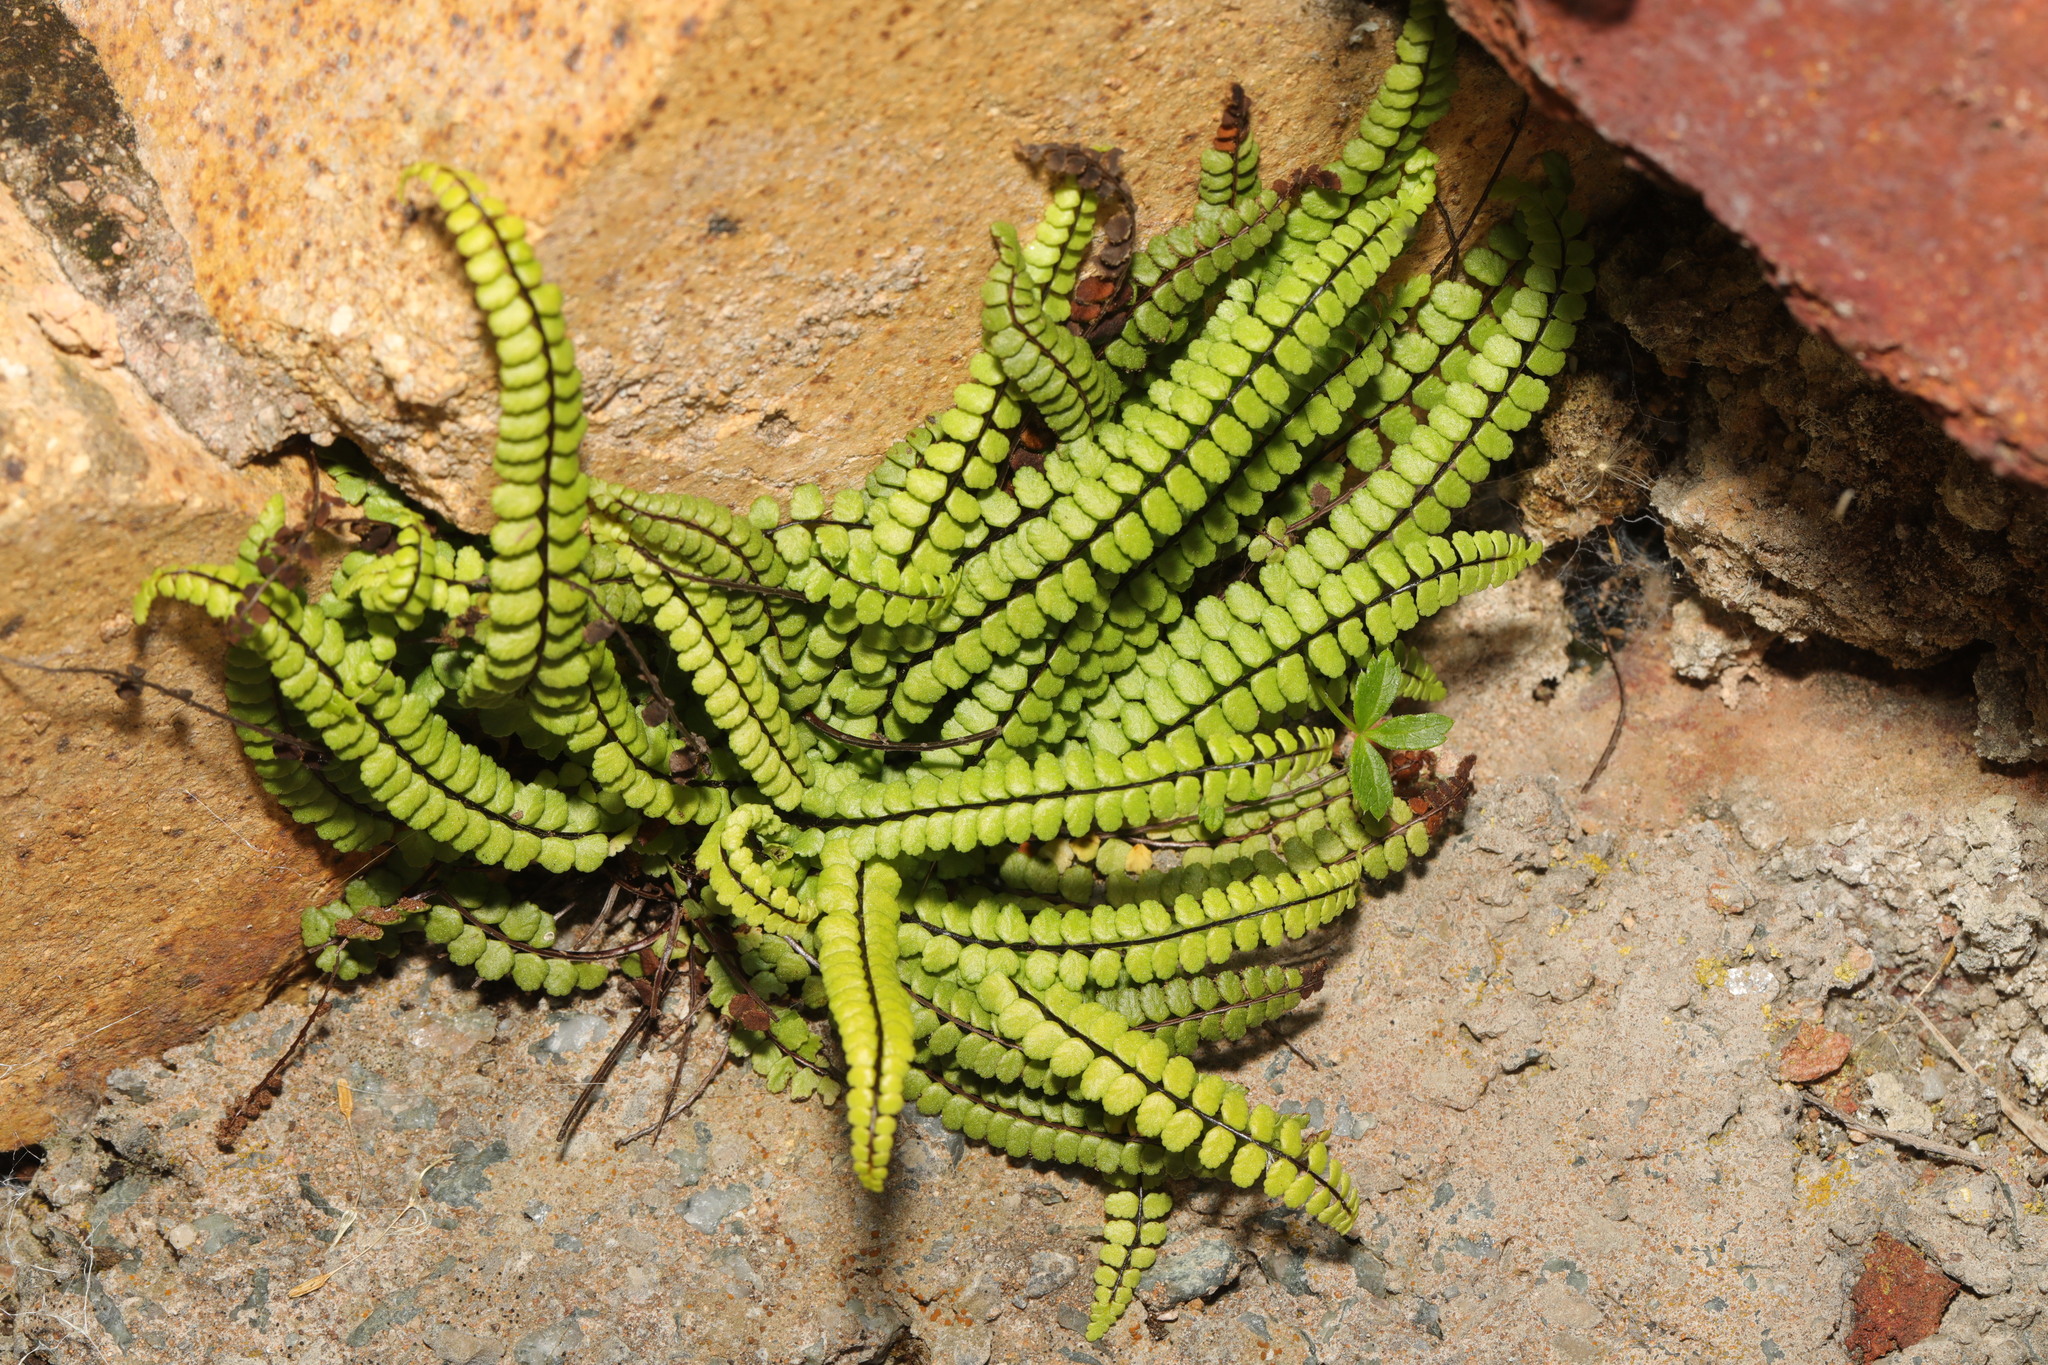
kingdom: Plantae
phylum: Tracheophyta
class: Polypodiopsida
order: Polypodiales
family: Aspleniaceae
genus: Asplenium
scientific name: Asplenium trichomanes
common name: Maidenhair spleenwort
